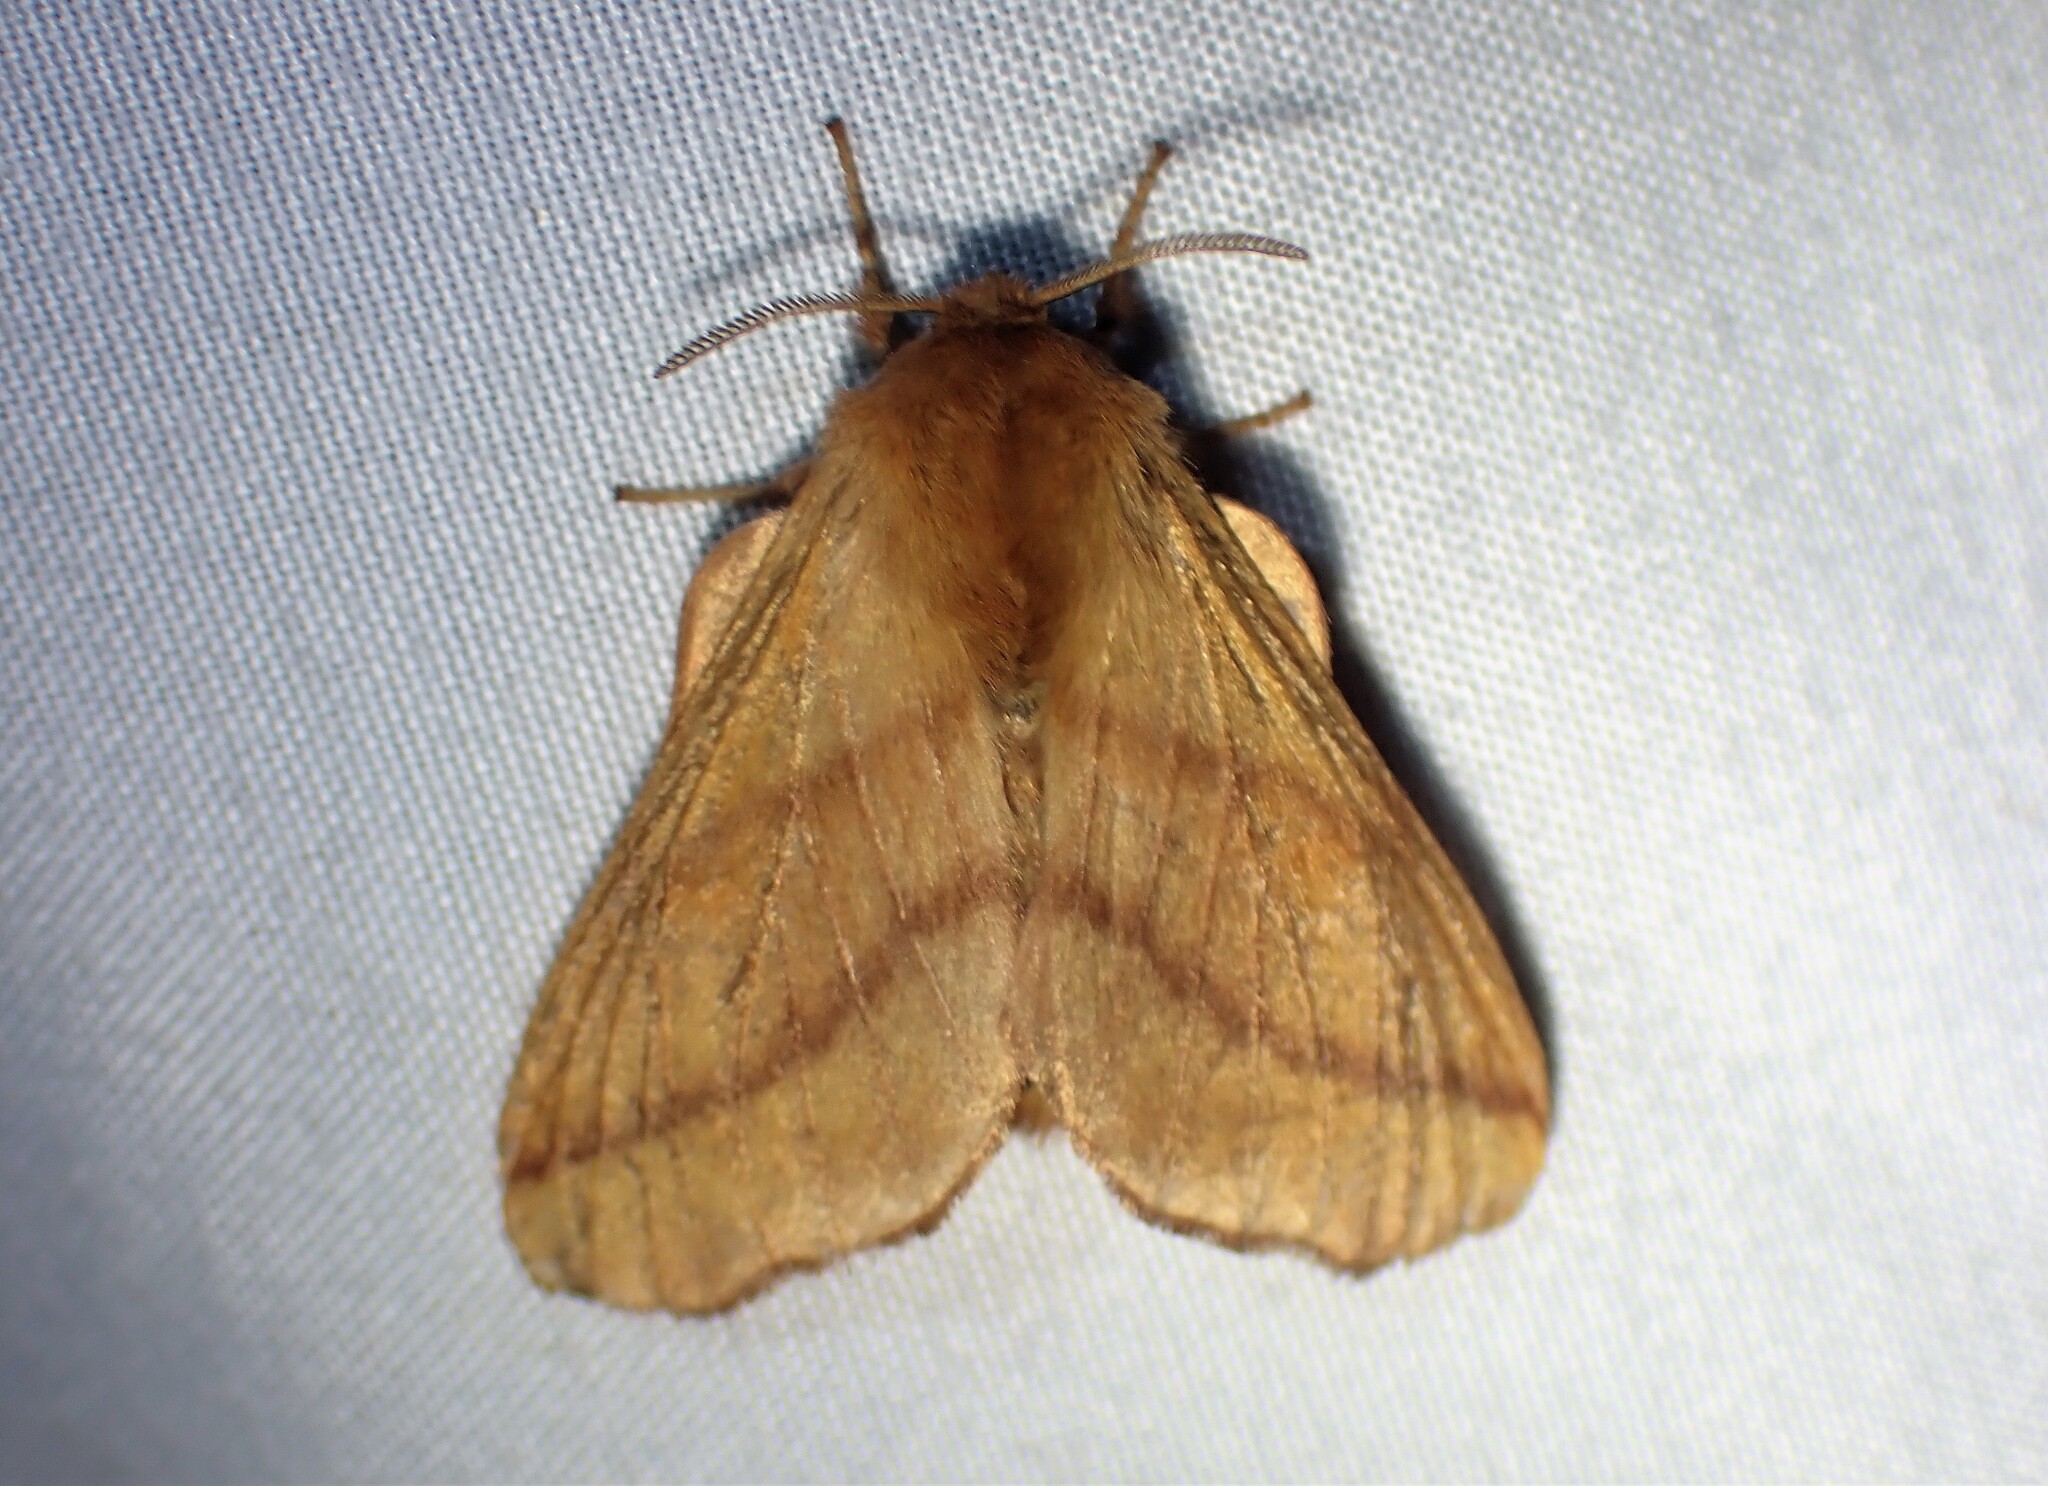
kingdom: Animalia
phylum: Arthropoda
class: Insecta
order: Lepidoptera
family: Lasiocampidae
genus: Malacosoma
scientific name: Malacosoma disstria
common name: Forest tent caterpillar
